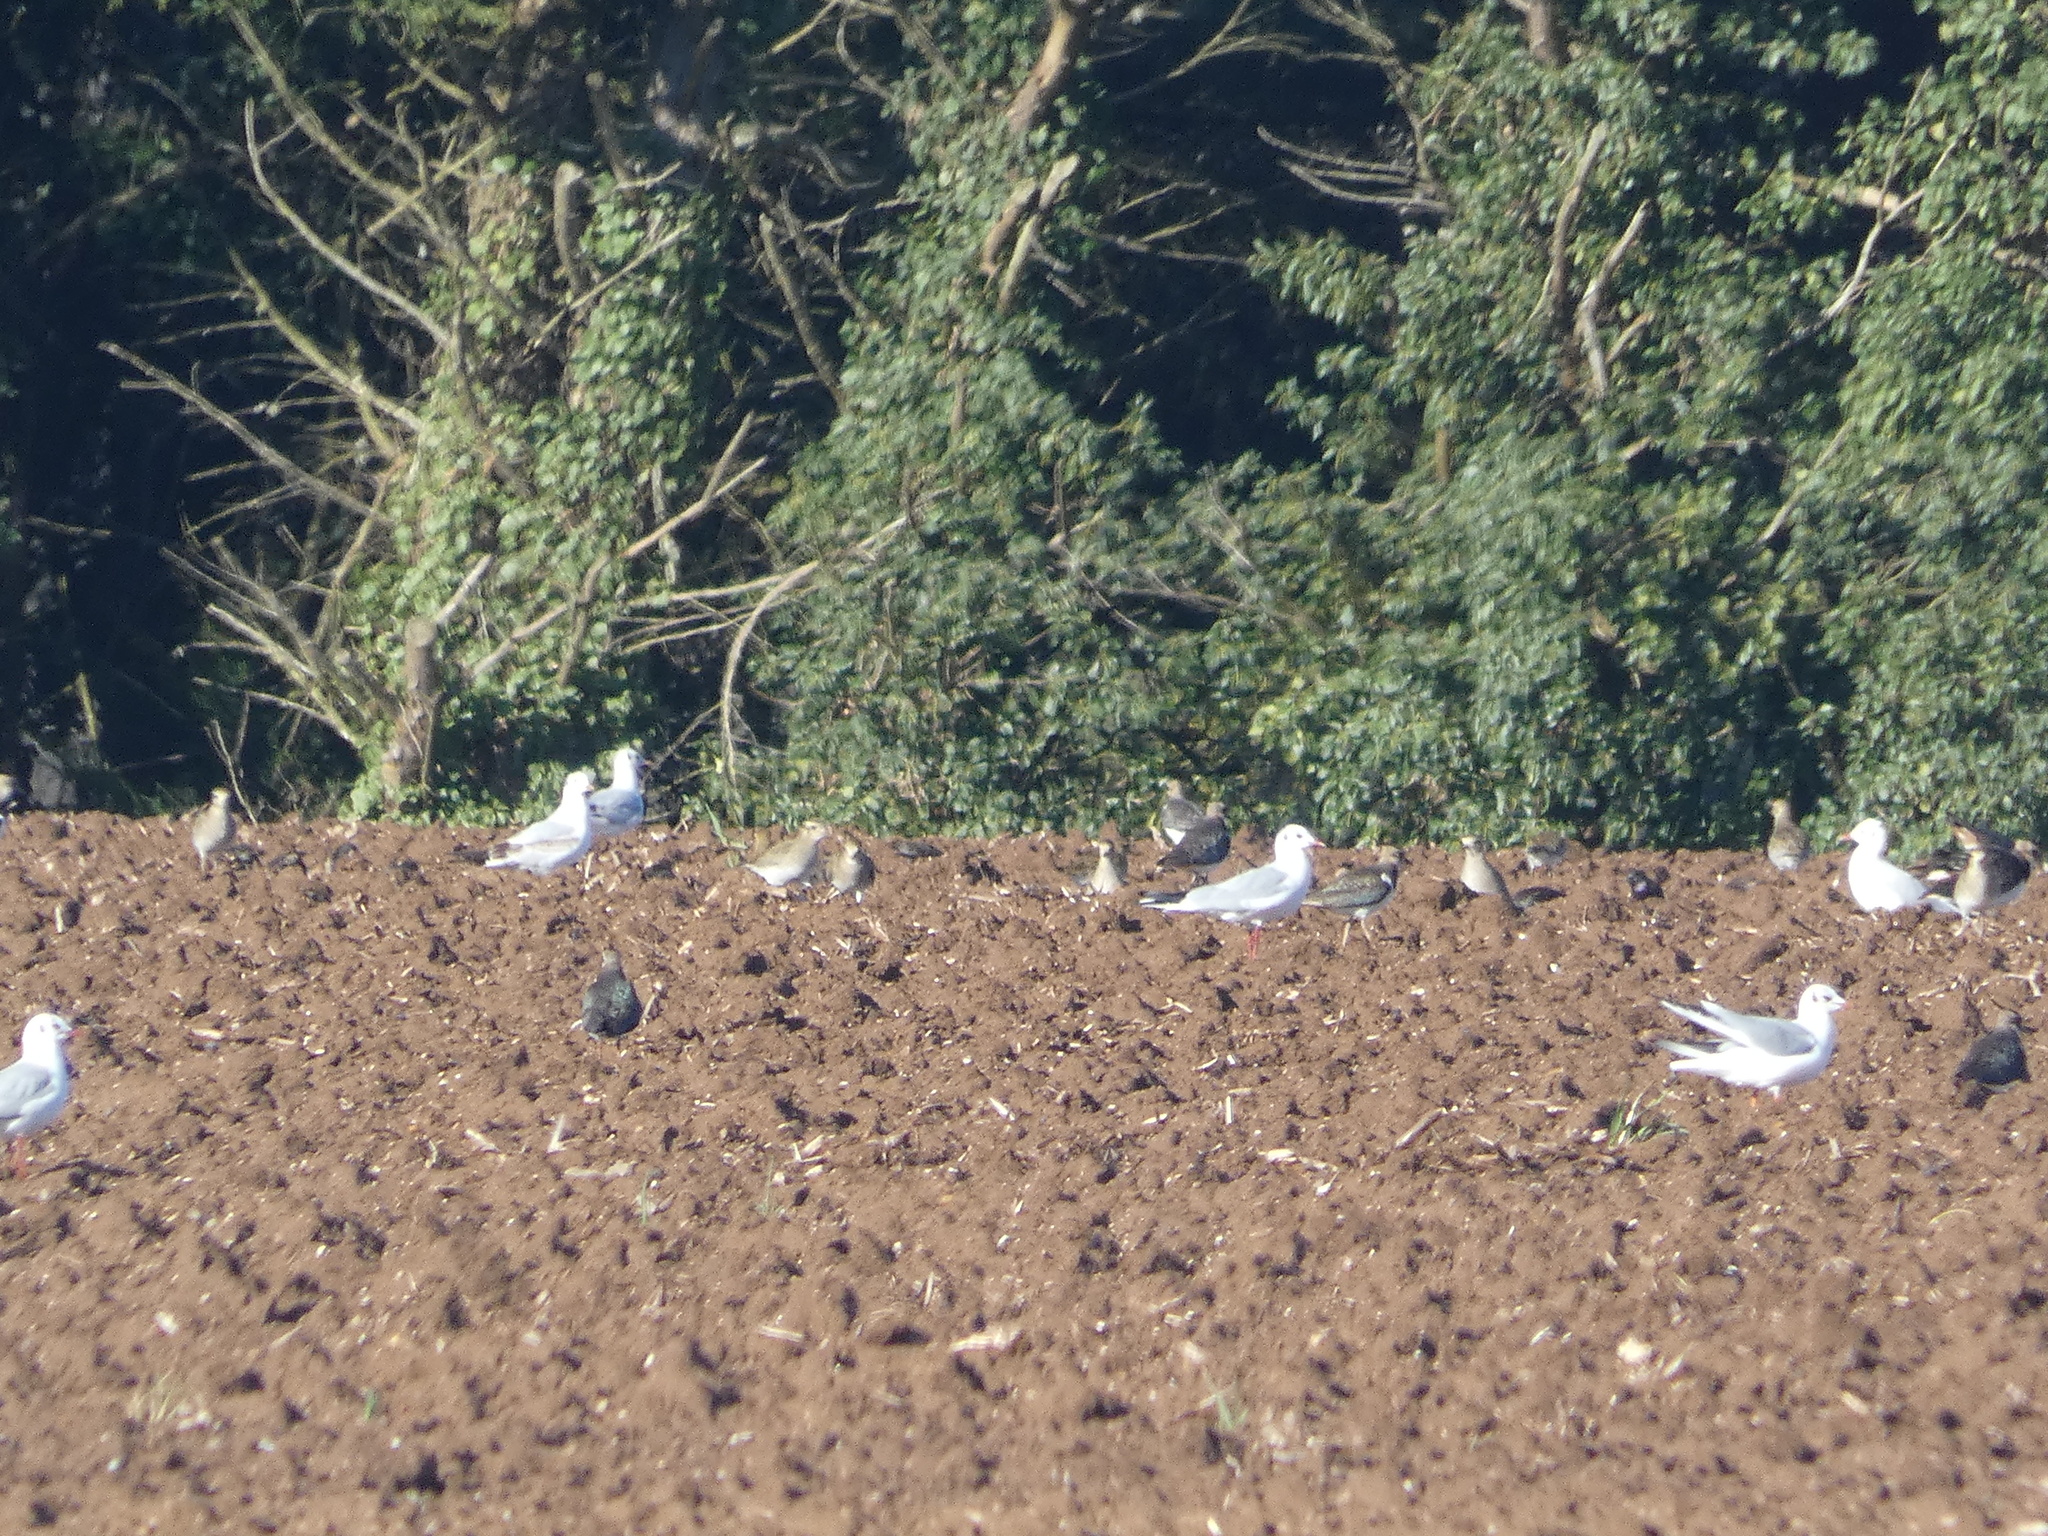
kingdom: Animalia
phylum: Chordata
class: Aves
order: Charadriiformes
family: Charadriidae
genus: Vanellus
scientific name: Vanellus vanellus
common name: Northern lapwing
